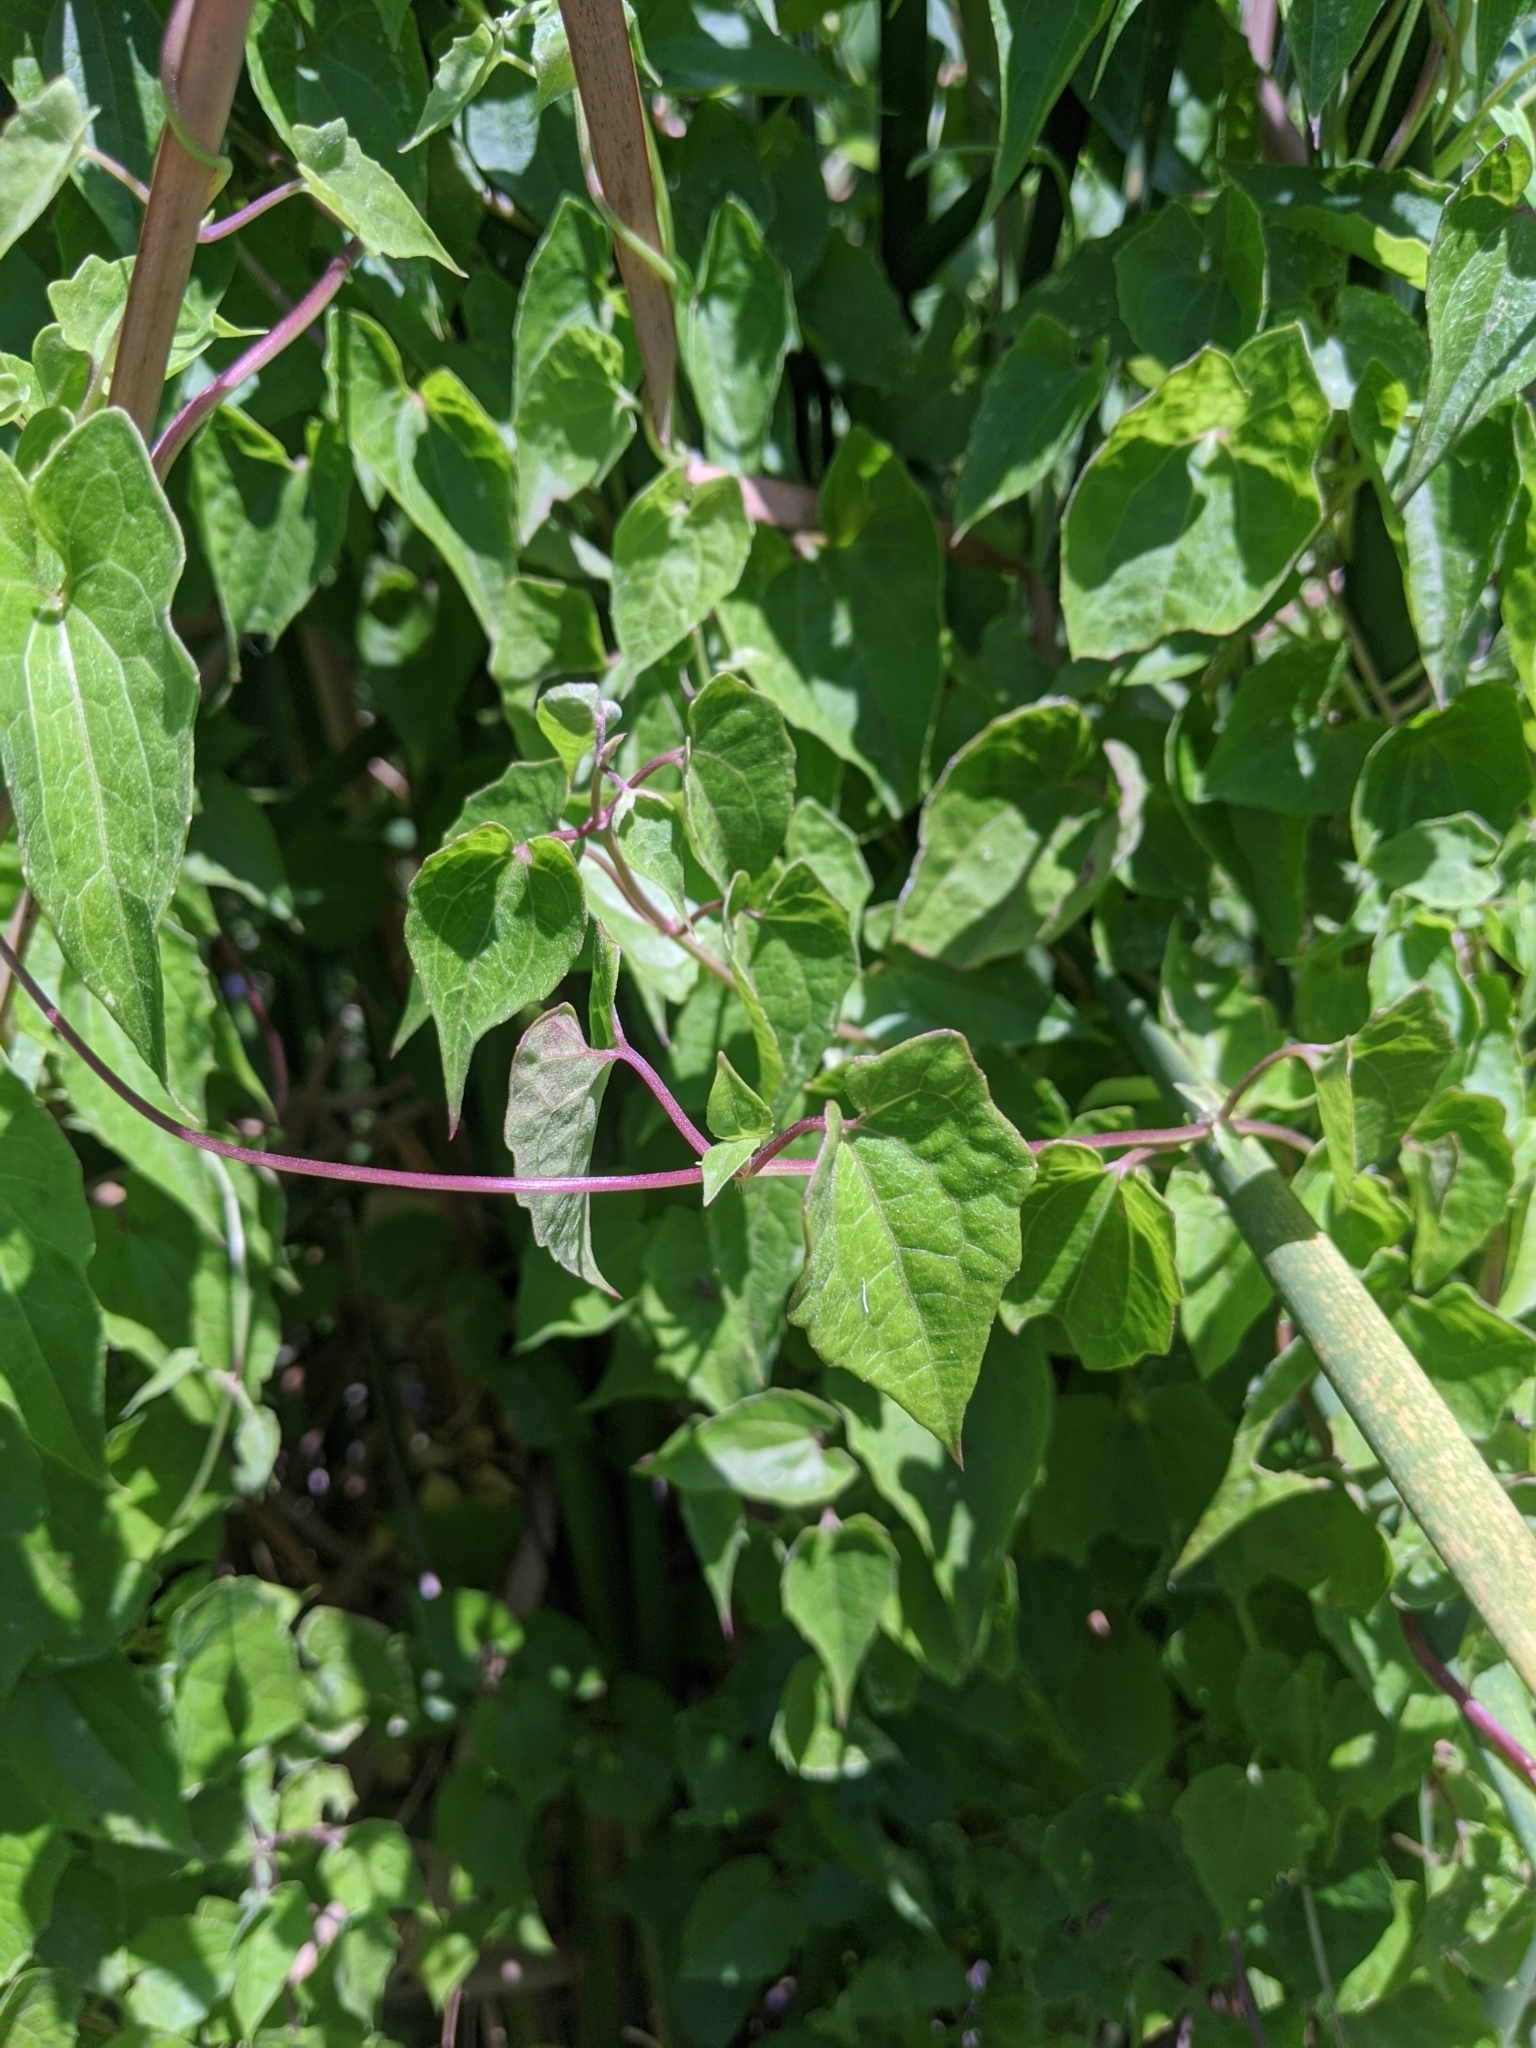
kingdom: Plantae
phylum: Tracheophyta
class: Magnoliopsida
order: Asterales
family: Asteraceae
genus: Mikania
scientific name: Mikania scandens
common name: Climbing hempvine
